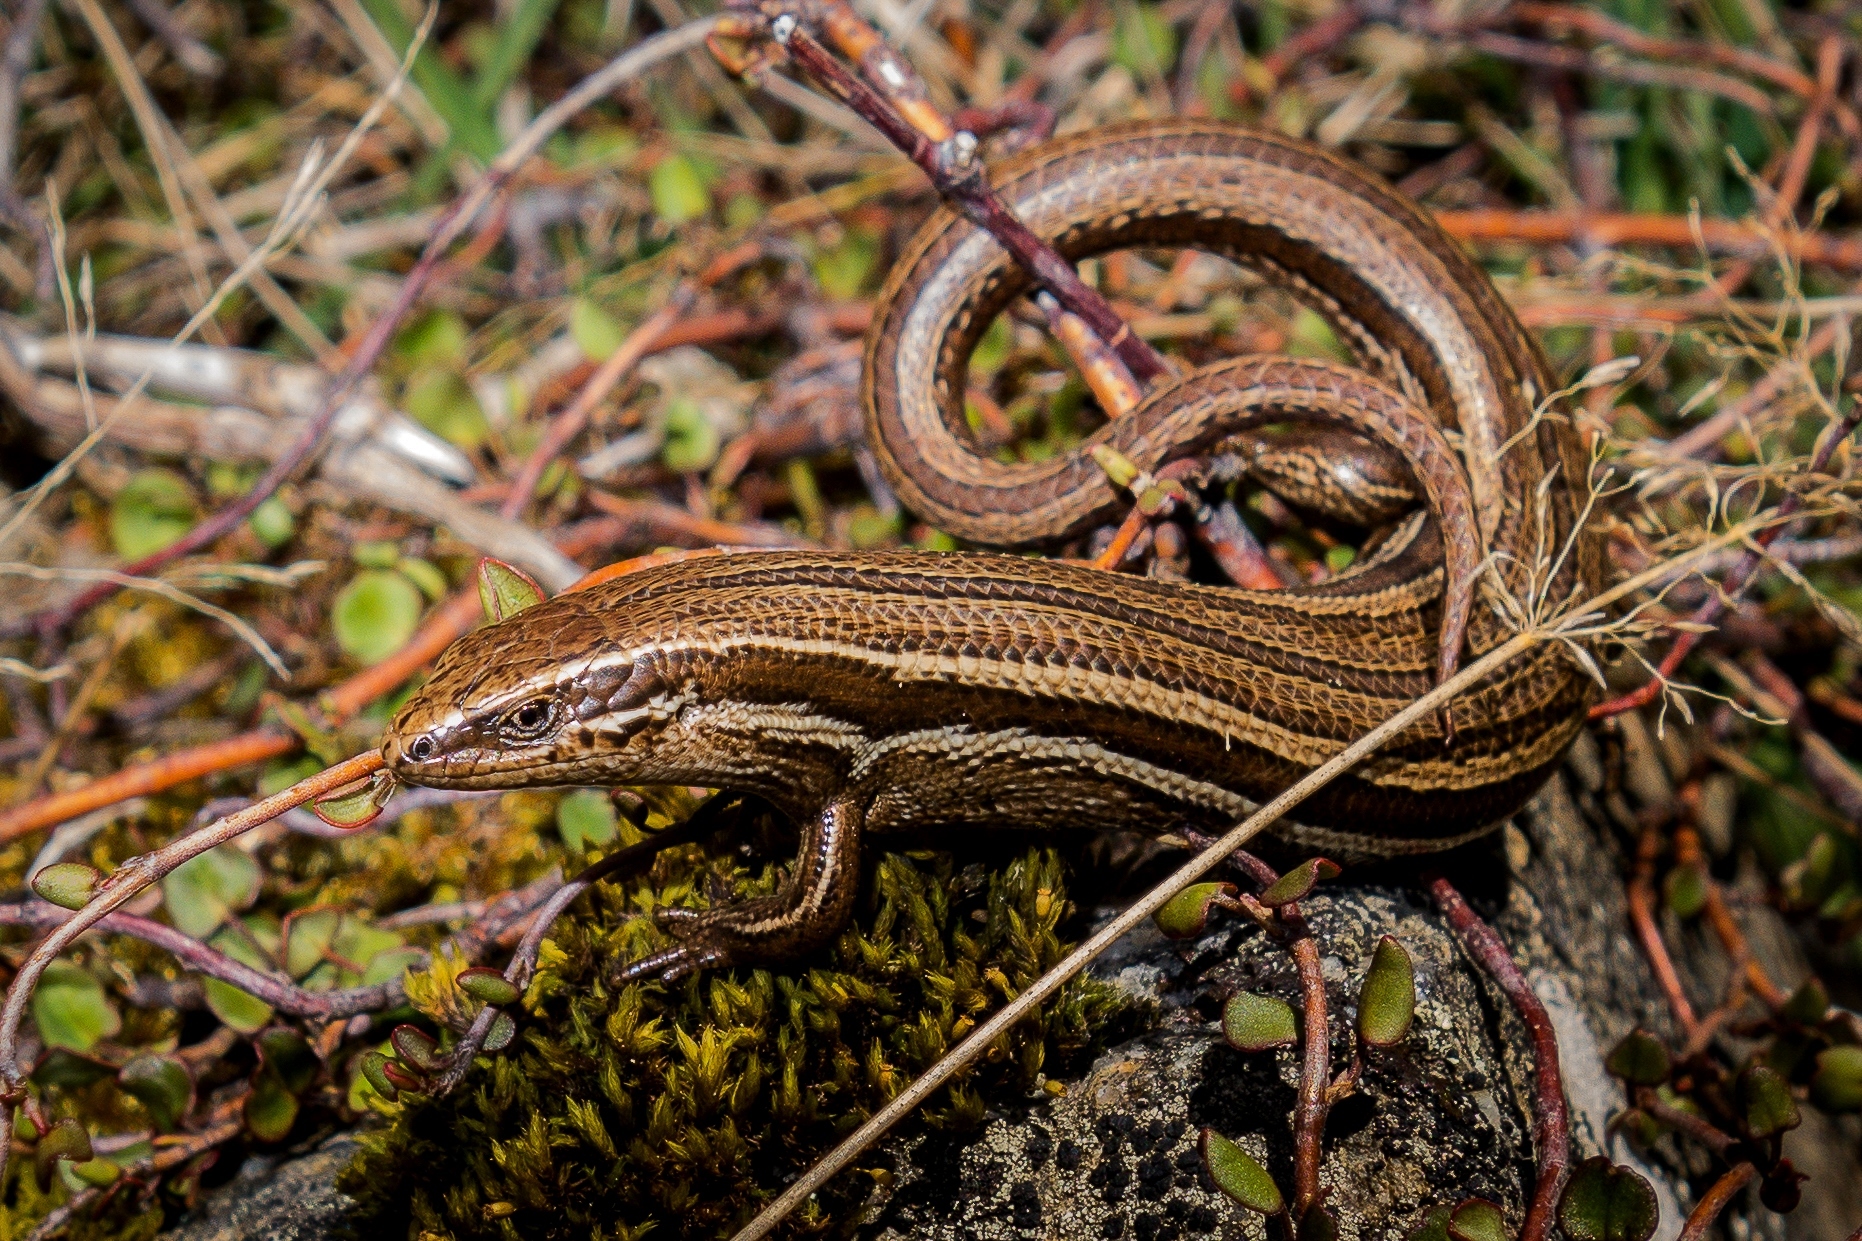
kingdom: Animalia
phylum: Chordata
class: Squamata
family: Scincidae
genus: Oligosoma
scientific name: Oligosoma polychroma
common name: Common new zealand skink
